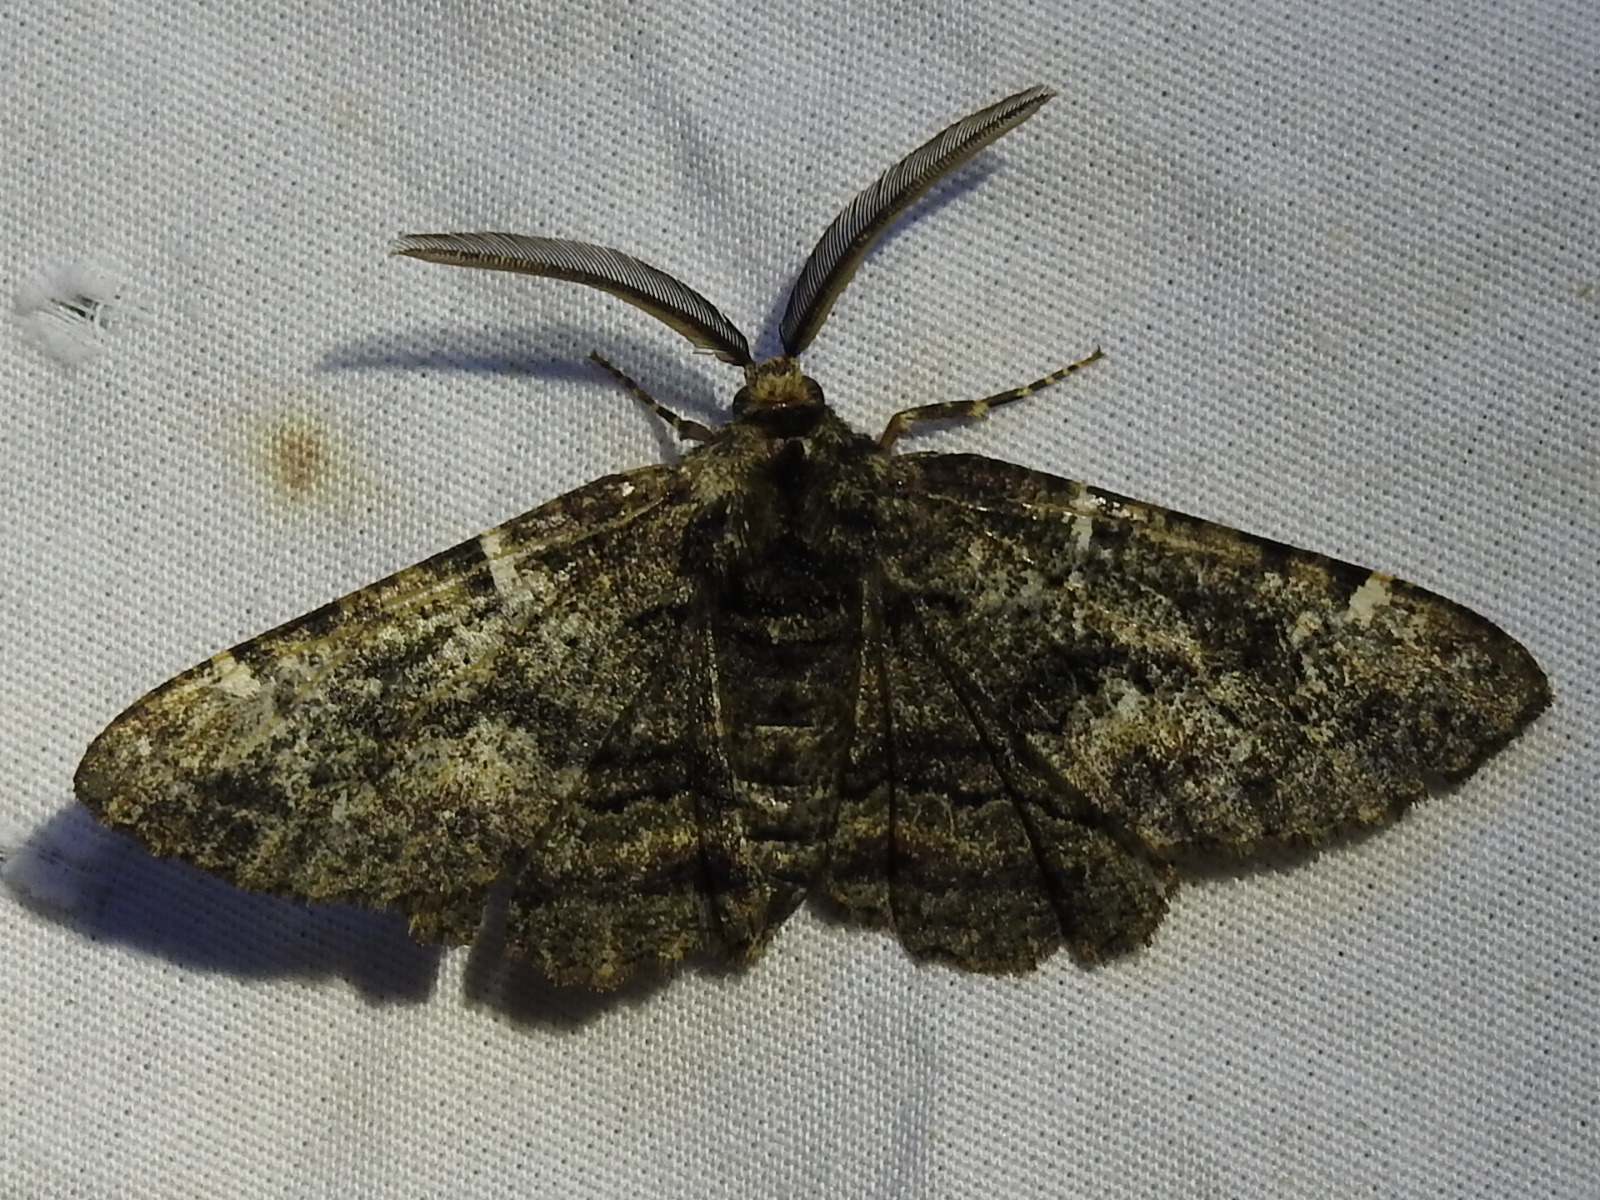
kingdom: Animalia
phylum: Arthropoda
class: Insecta
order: Lepidoptera
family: Geometridae
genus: Phaeoura
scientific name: Phaeoura quernaria
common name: Oak beauty
